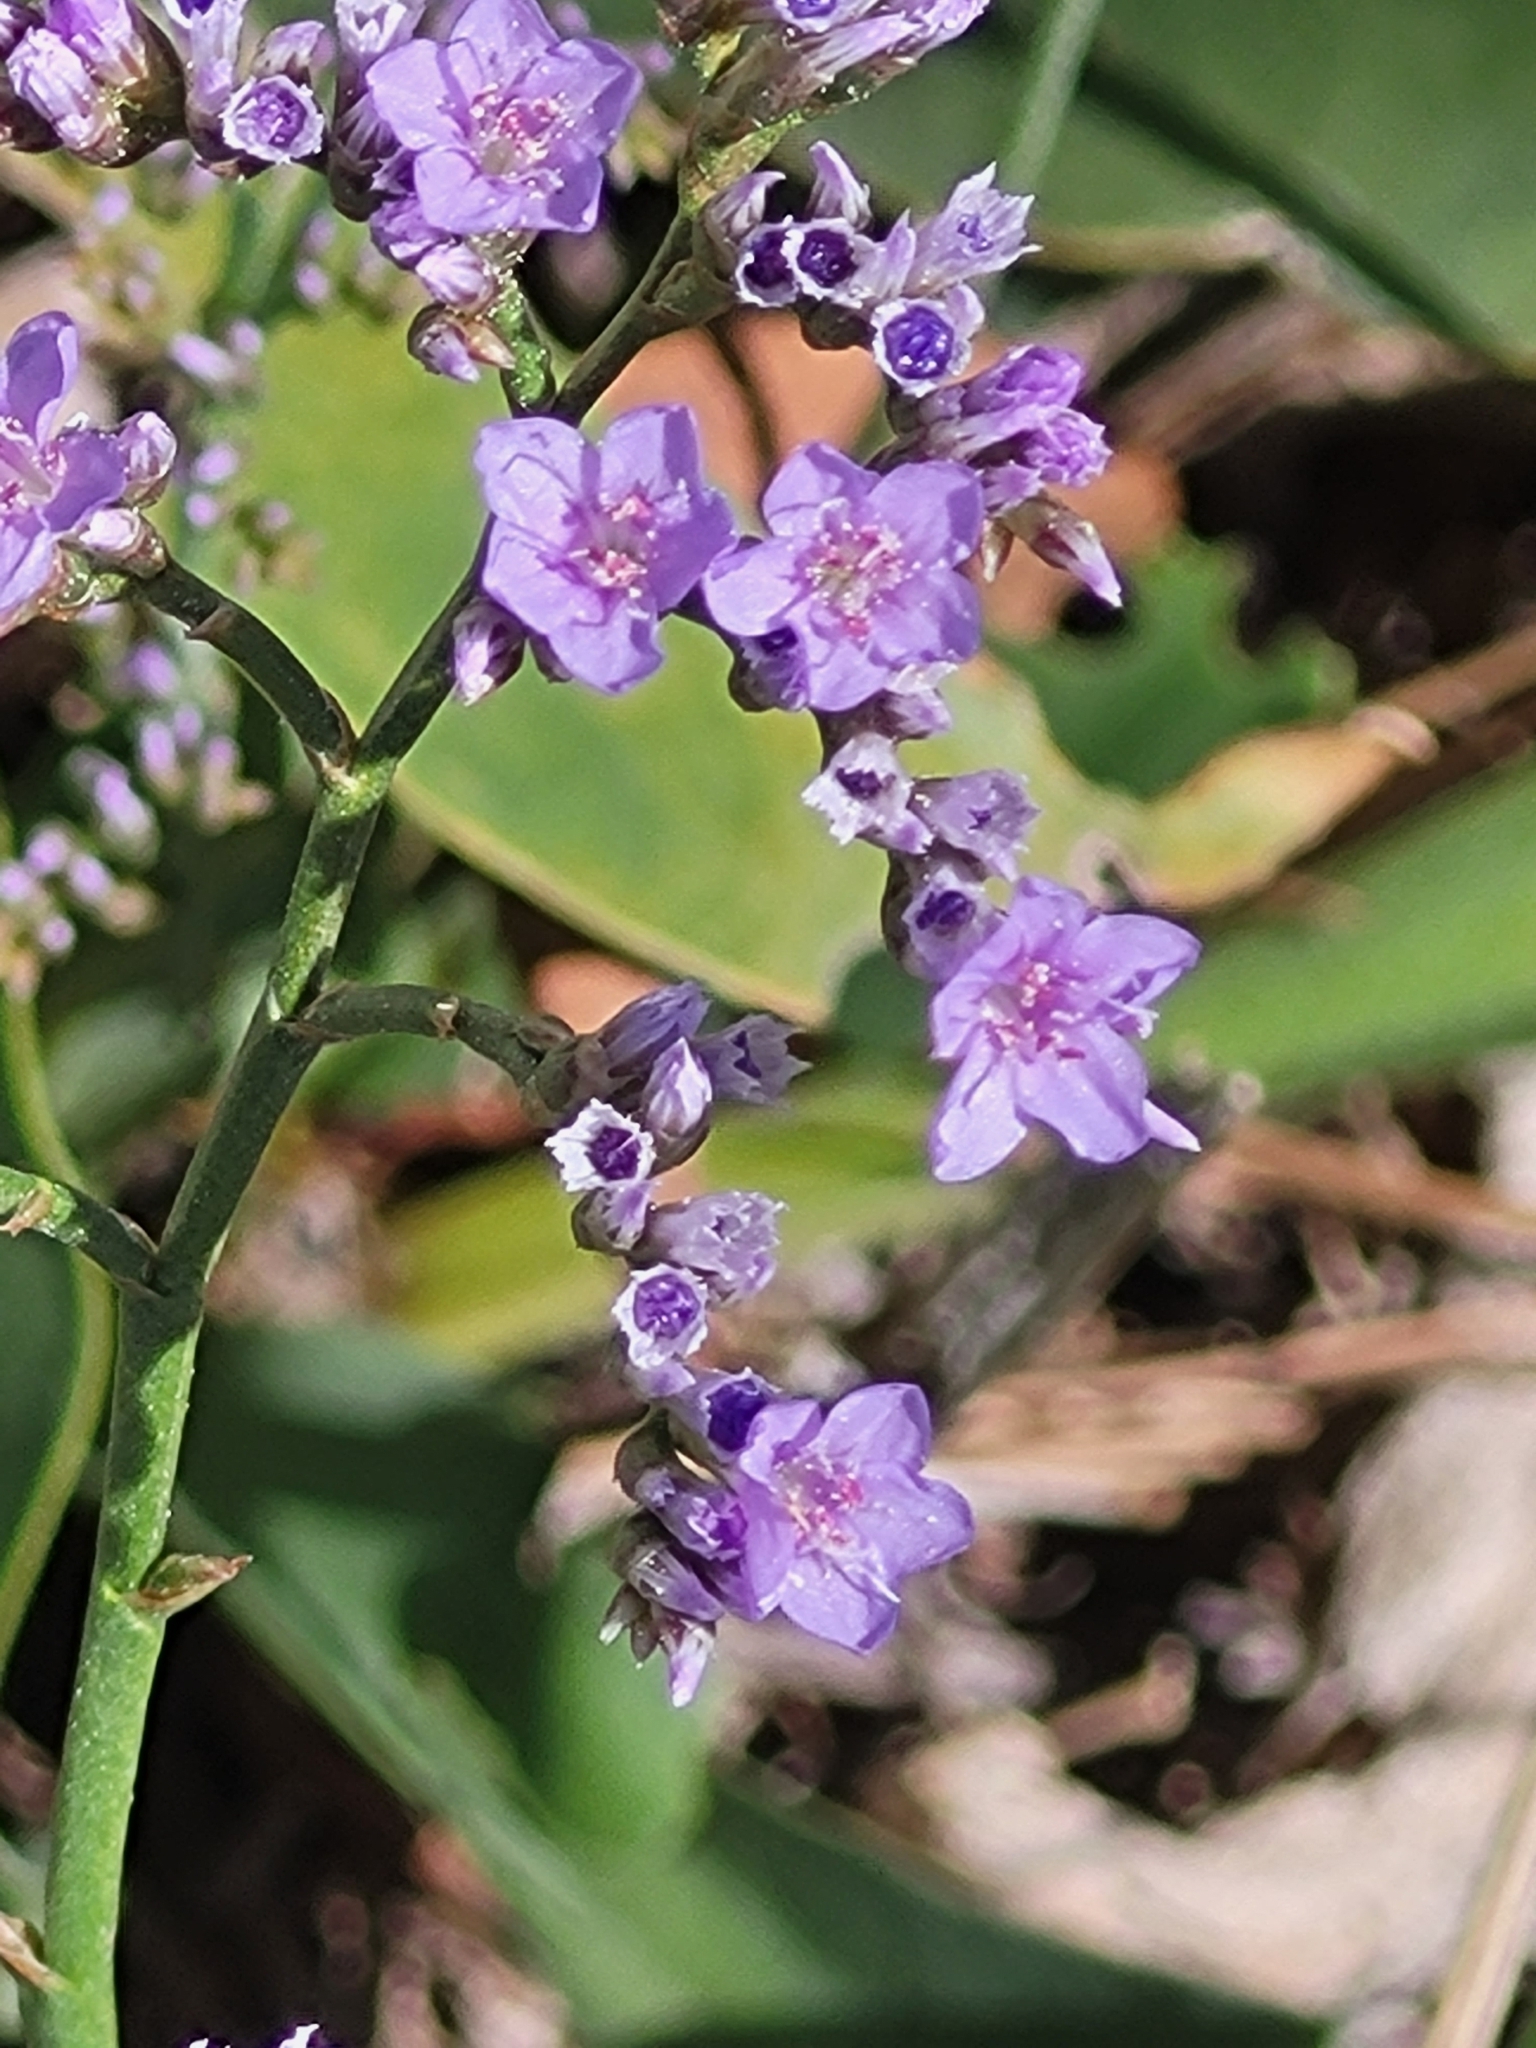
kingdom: Plantae
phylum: Tracheophyta
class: Magnoliopsida
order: Caryophyllales
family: Plumbaginaceae
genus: Limonium
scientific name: Limonium narbonense
